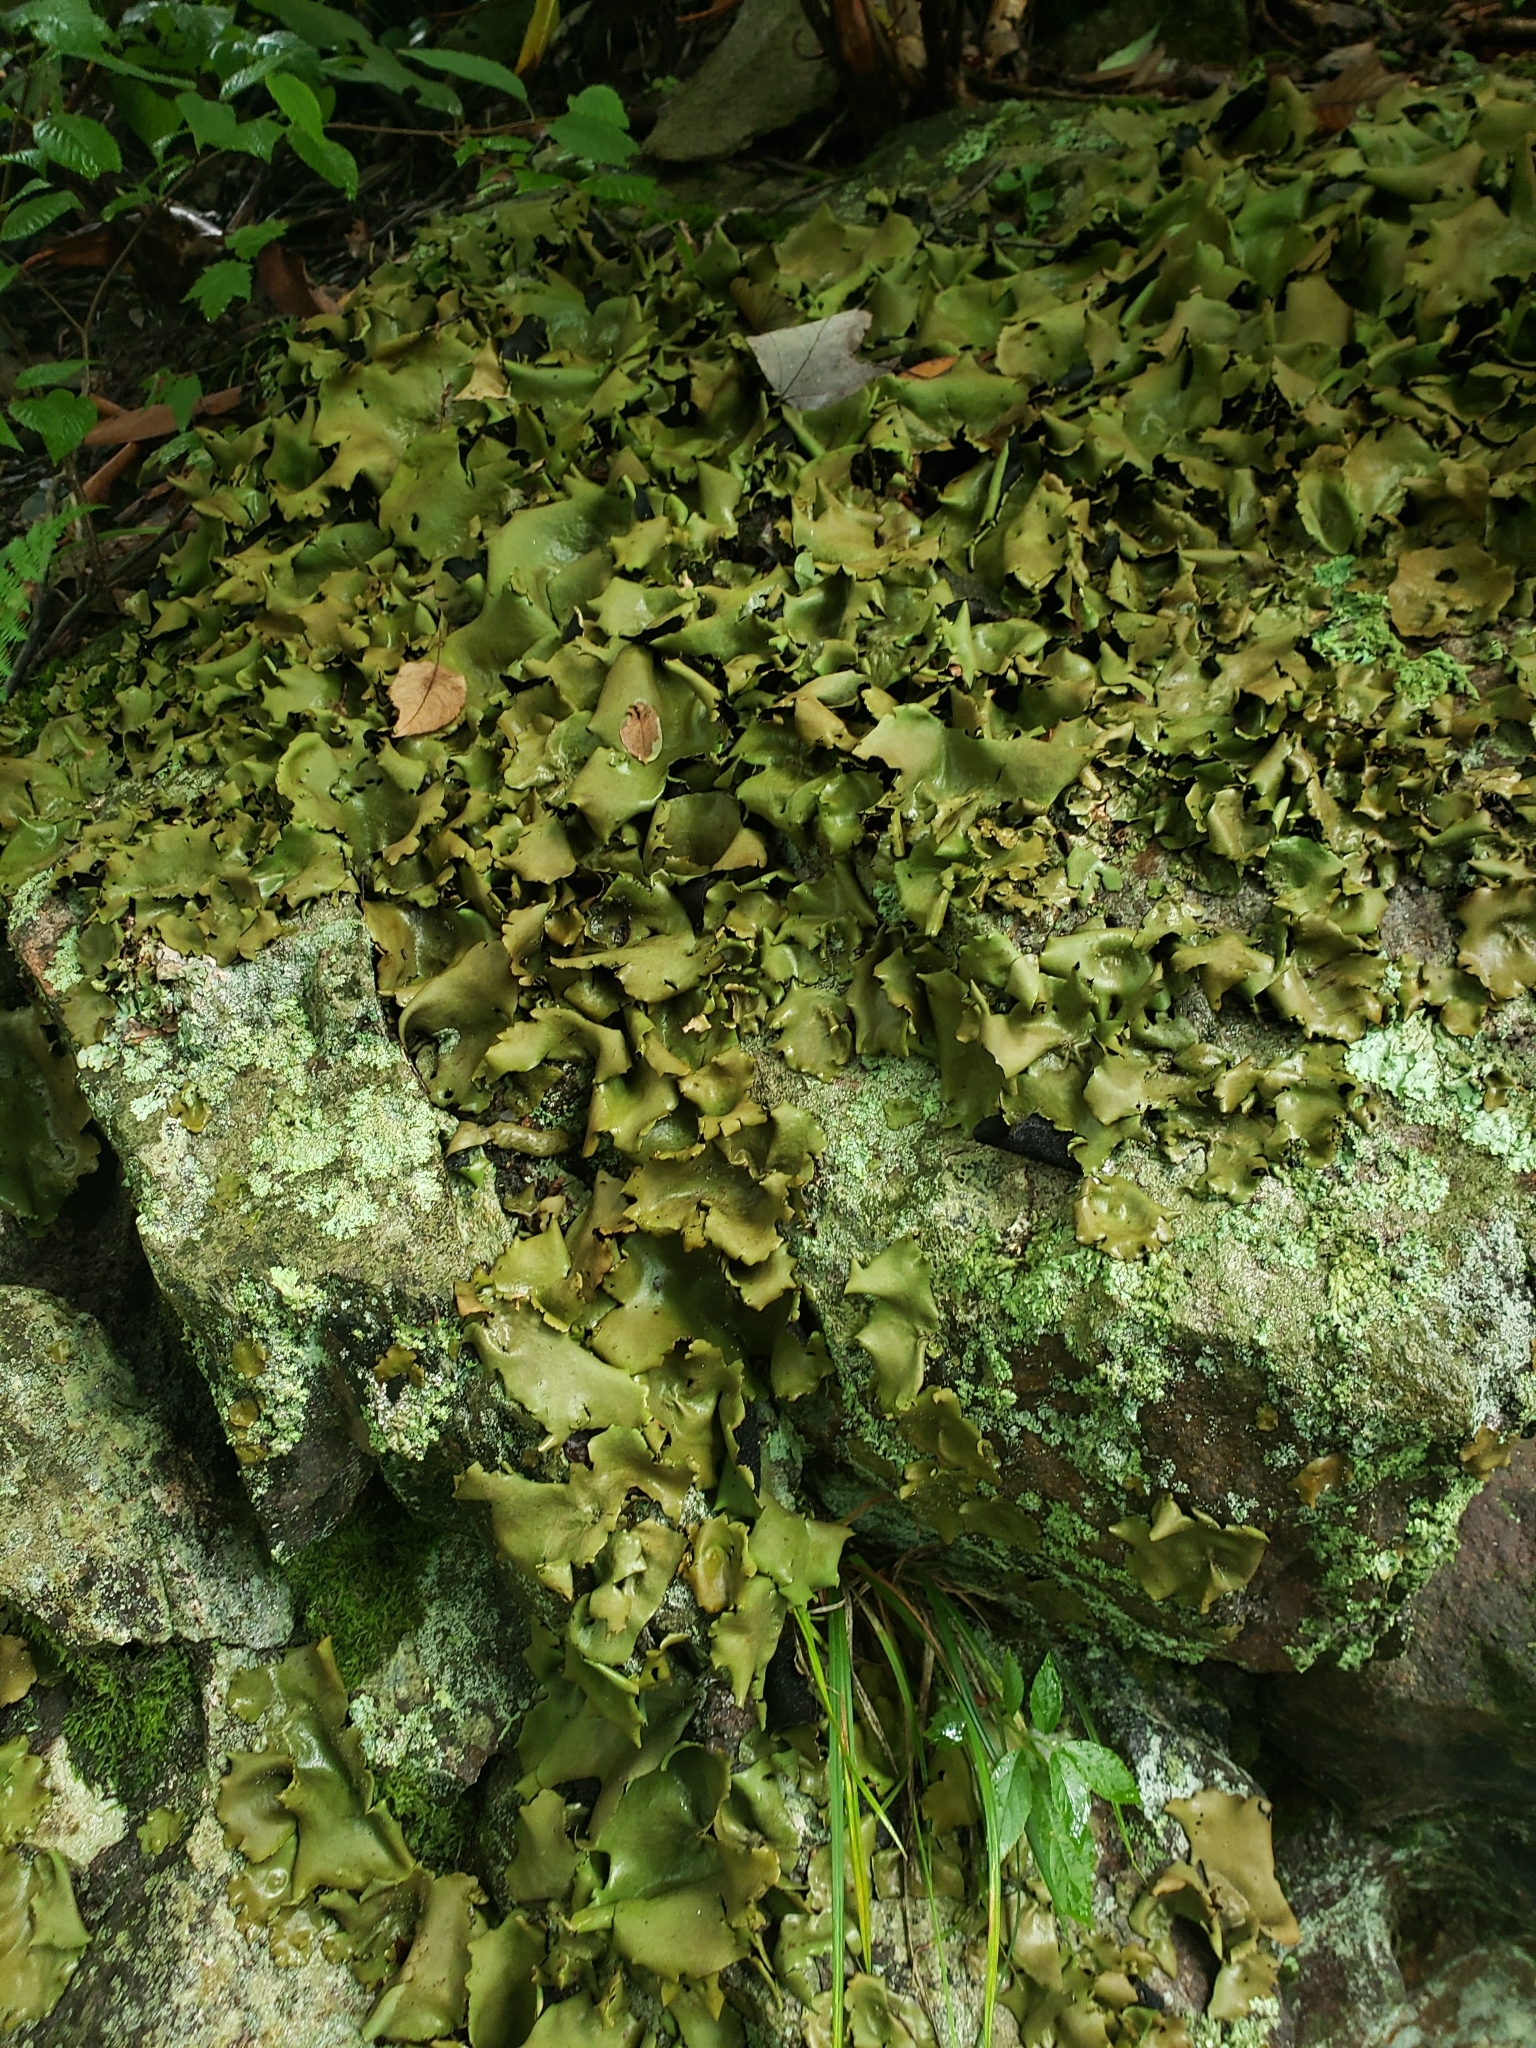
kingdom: Fungi
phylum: Ascomycota
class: Lecanoromycetes
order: Umbilicariales
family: Umbilicariaceae
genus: Umbilicaria
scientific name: Umbilicaria mammulata
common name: Smooth rock tripe
